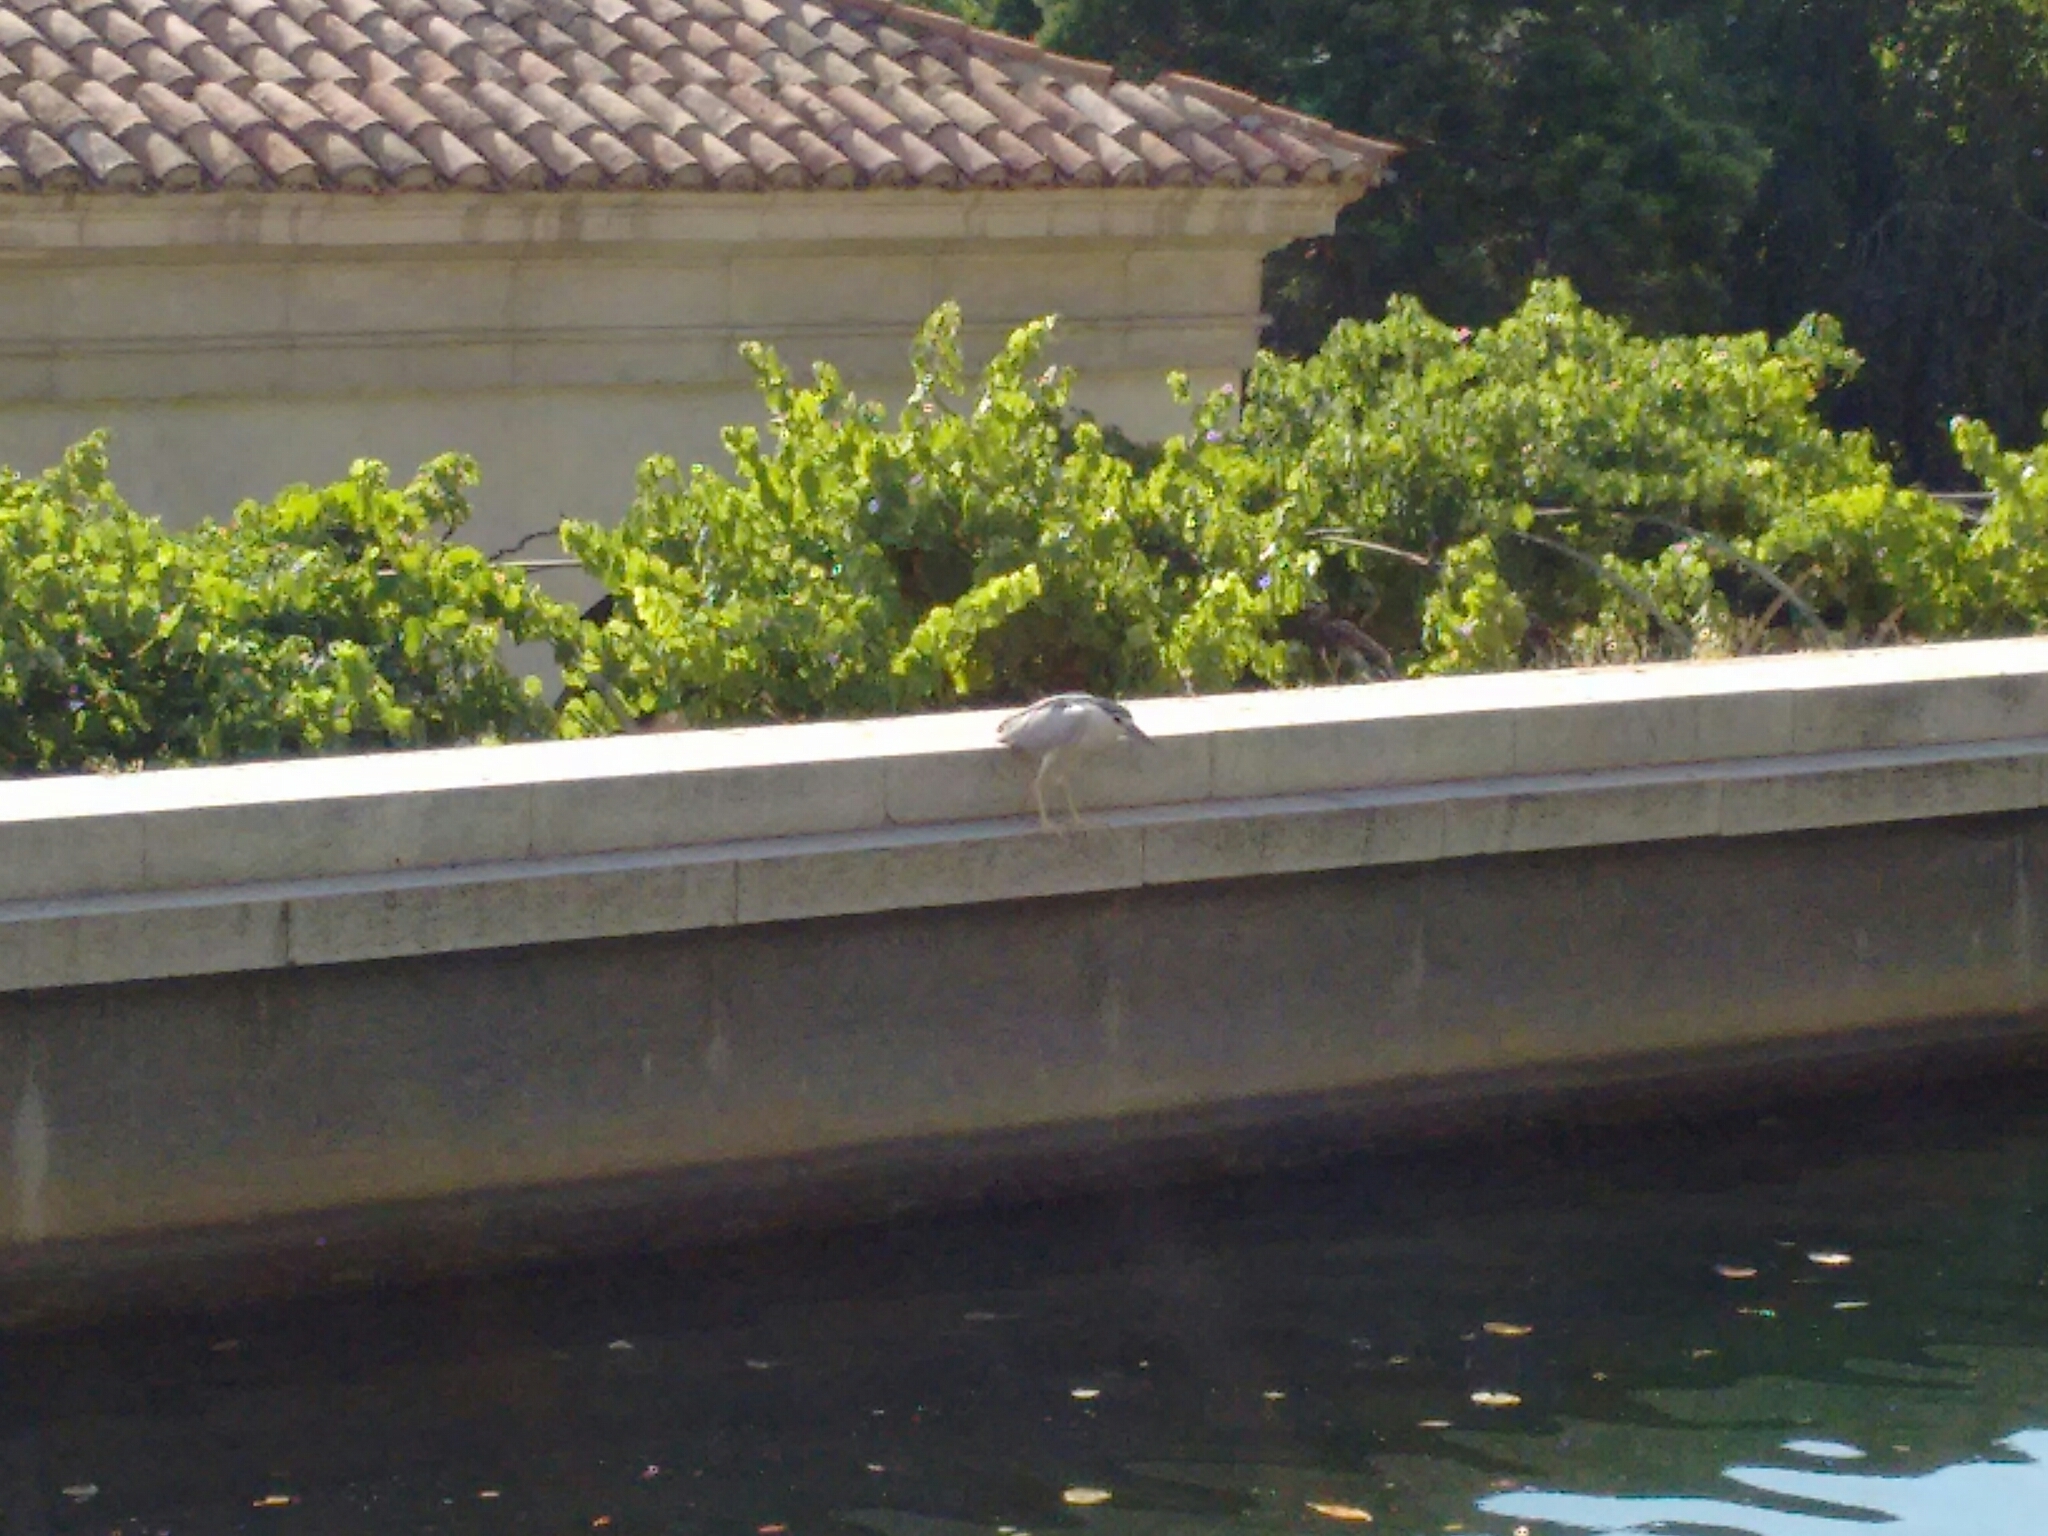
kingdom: Animalia
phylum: Chordata
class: Aves
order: Pelecaniformes
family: Ardeidae
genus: Nycticorax
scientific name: Nycticorax nycticorax
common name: Black-crowned night heron
